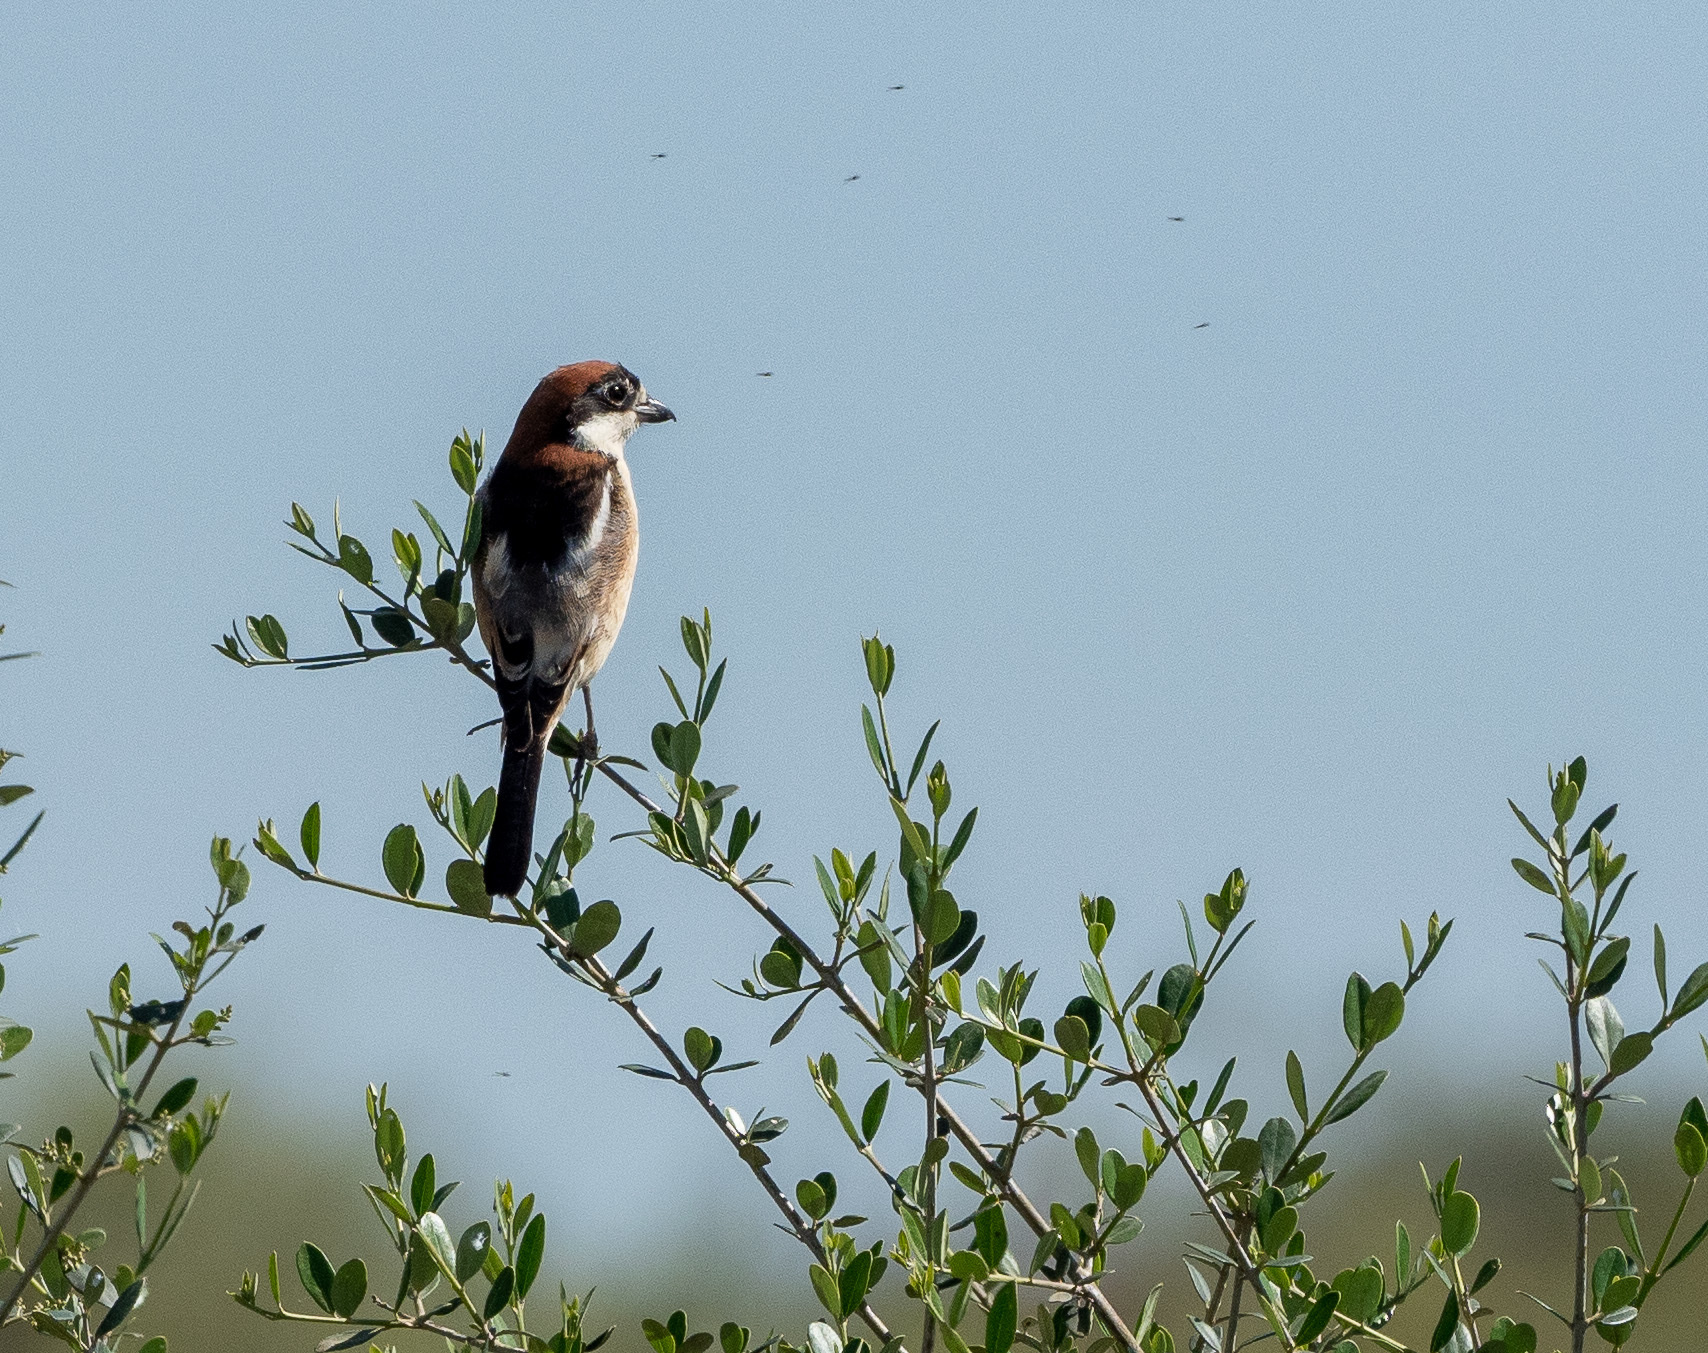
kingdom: Animalia
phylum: Chordata
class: Aves
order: Passeriformes
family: Laniidae
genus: Lanius
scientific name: Lanius senator
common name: Woodchat shrike
